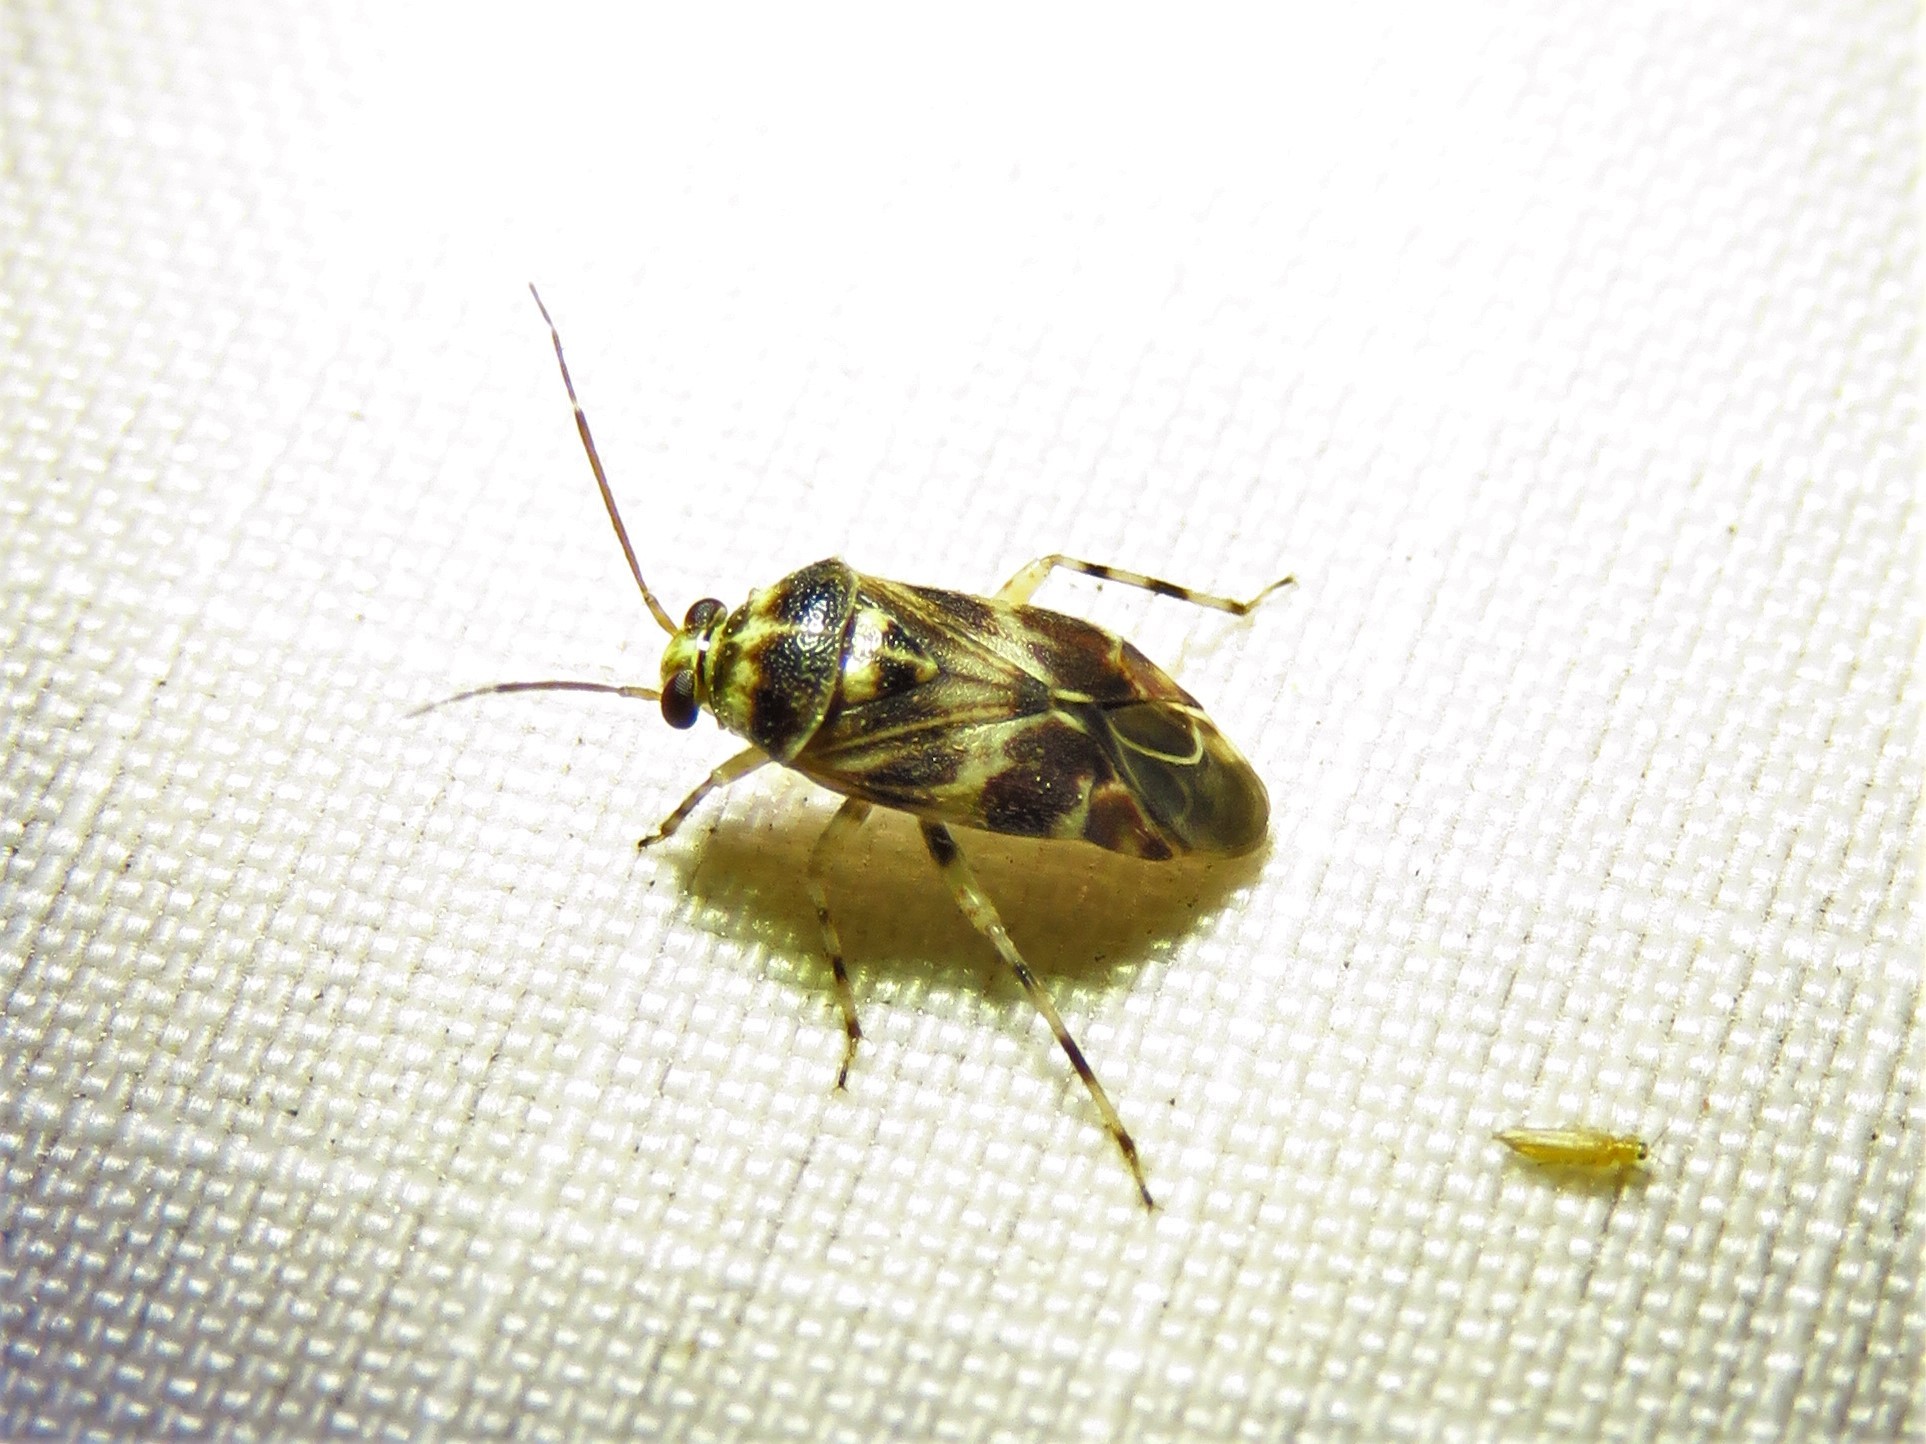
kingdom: Animalia
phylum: Arthropoda
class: Insecta
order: Hemiptera
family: Miridae
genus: Tropidosteptes
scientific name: Tropidosteptes quercicola
